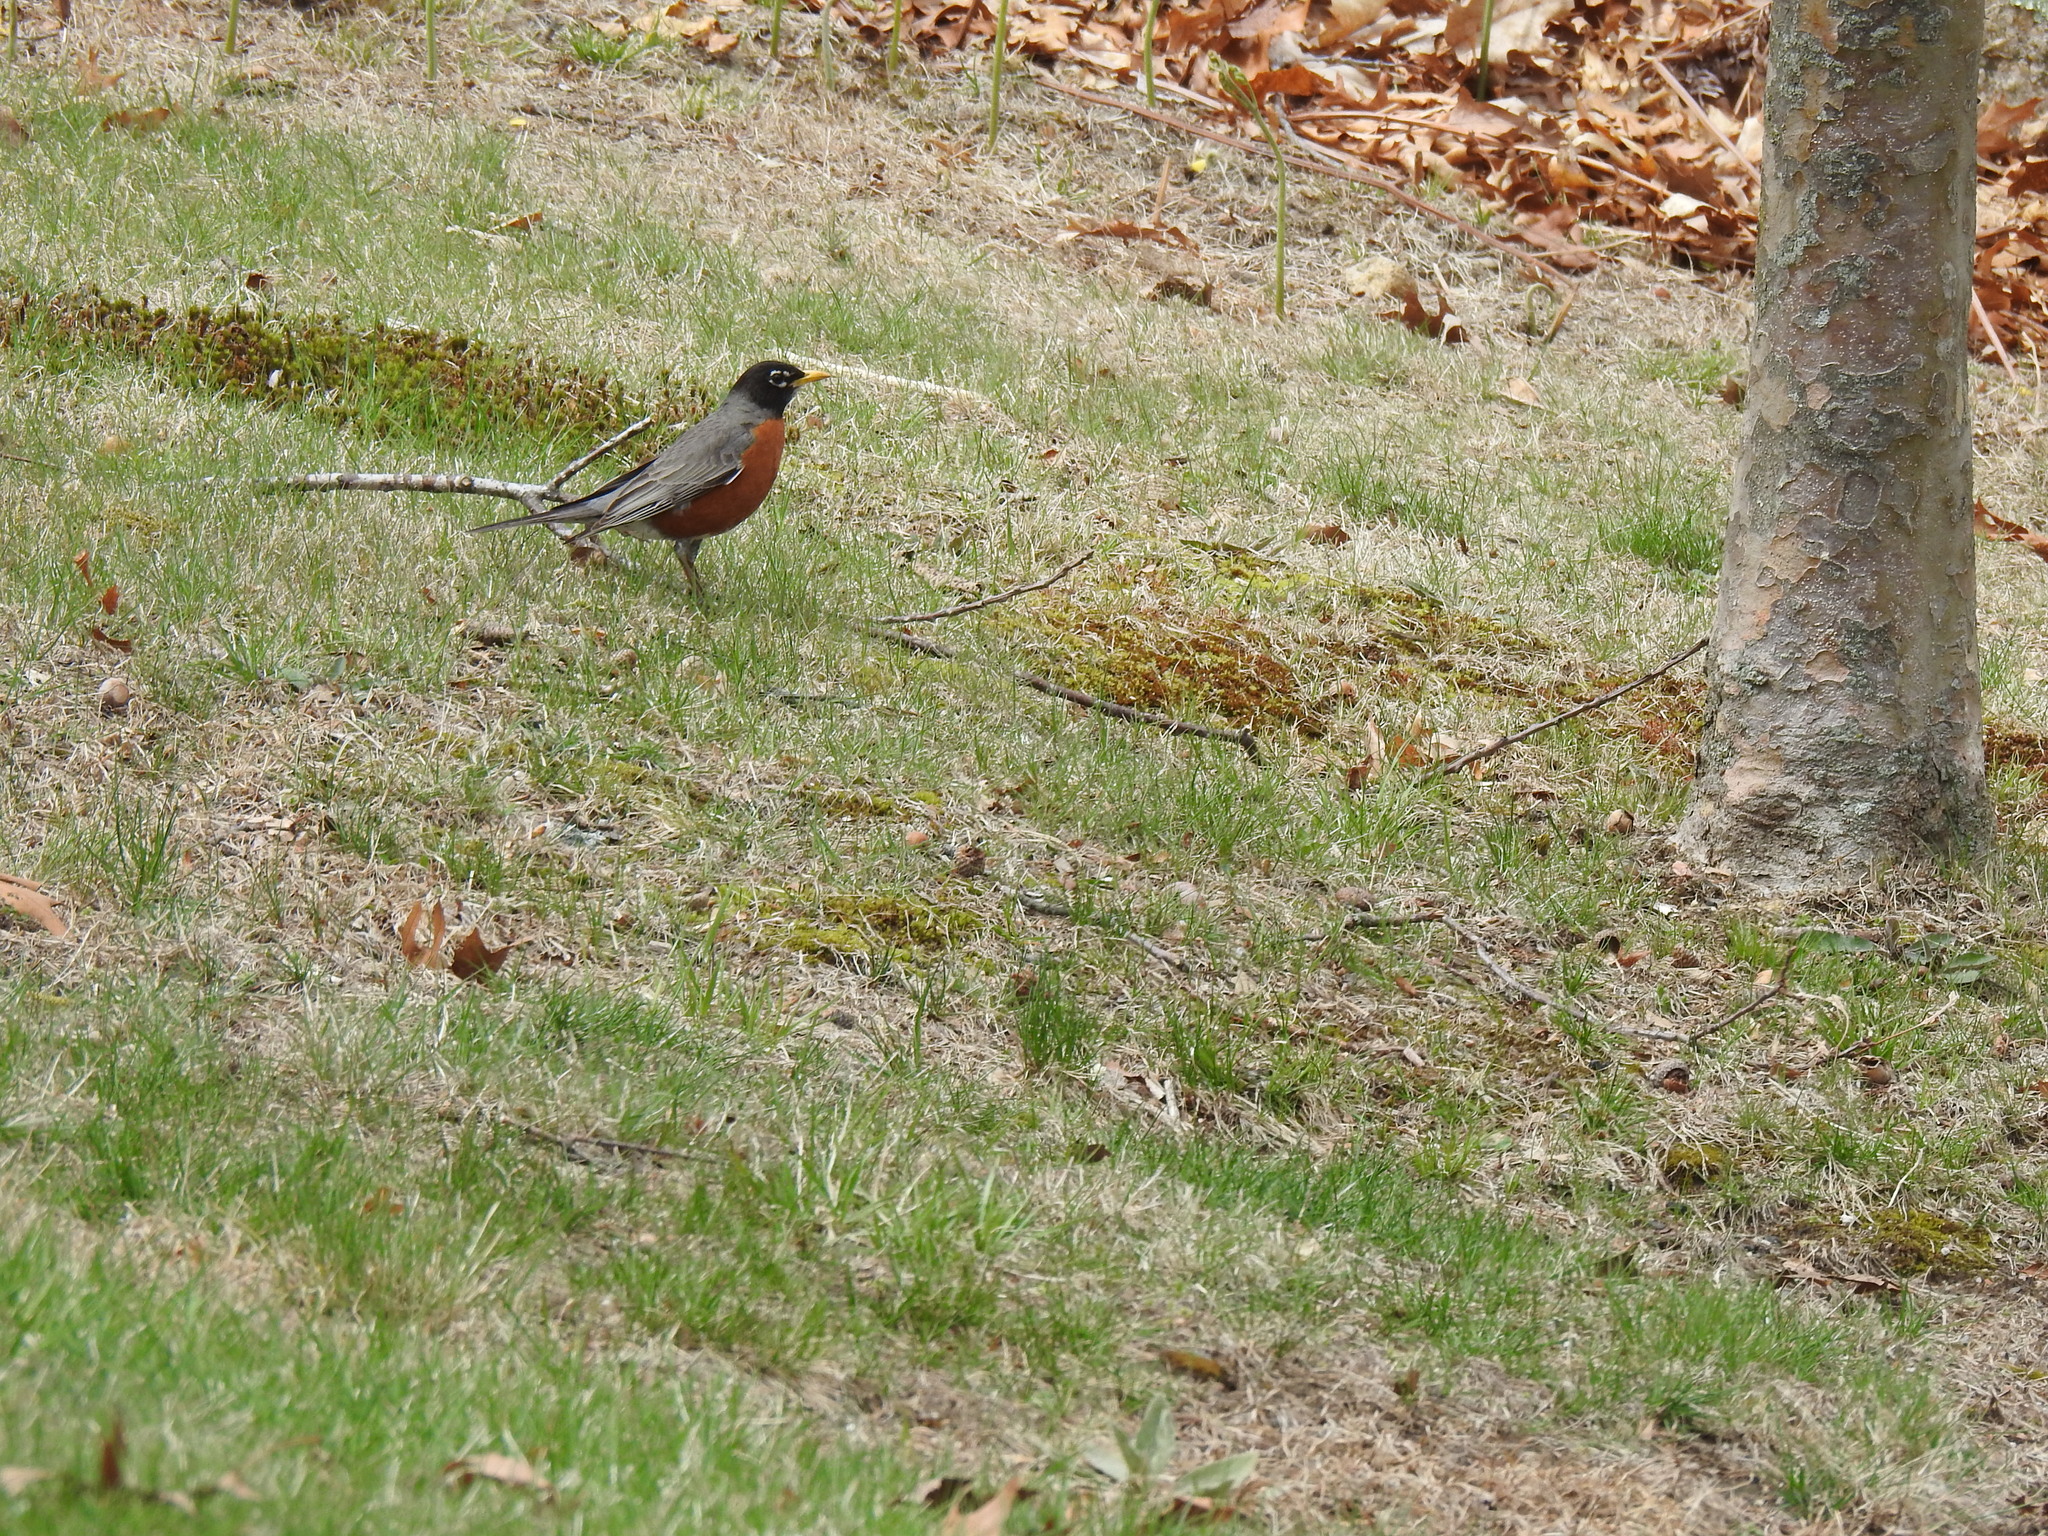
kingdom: Animalia
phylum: Chordata
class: Aves
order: Passeriformes
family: Turdidae
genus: Turdus
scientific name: Turdus migratorius
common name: American robin
